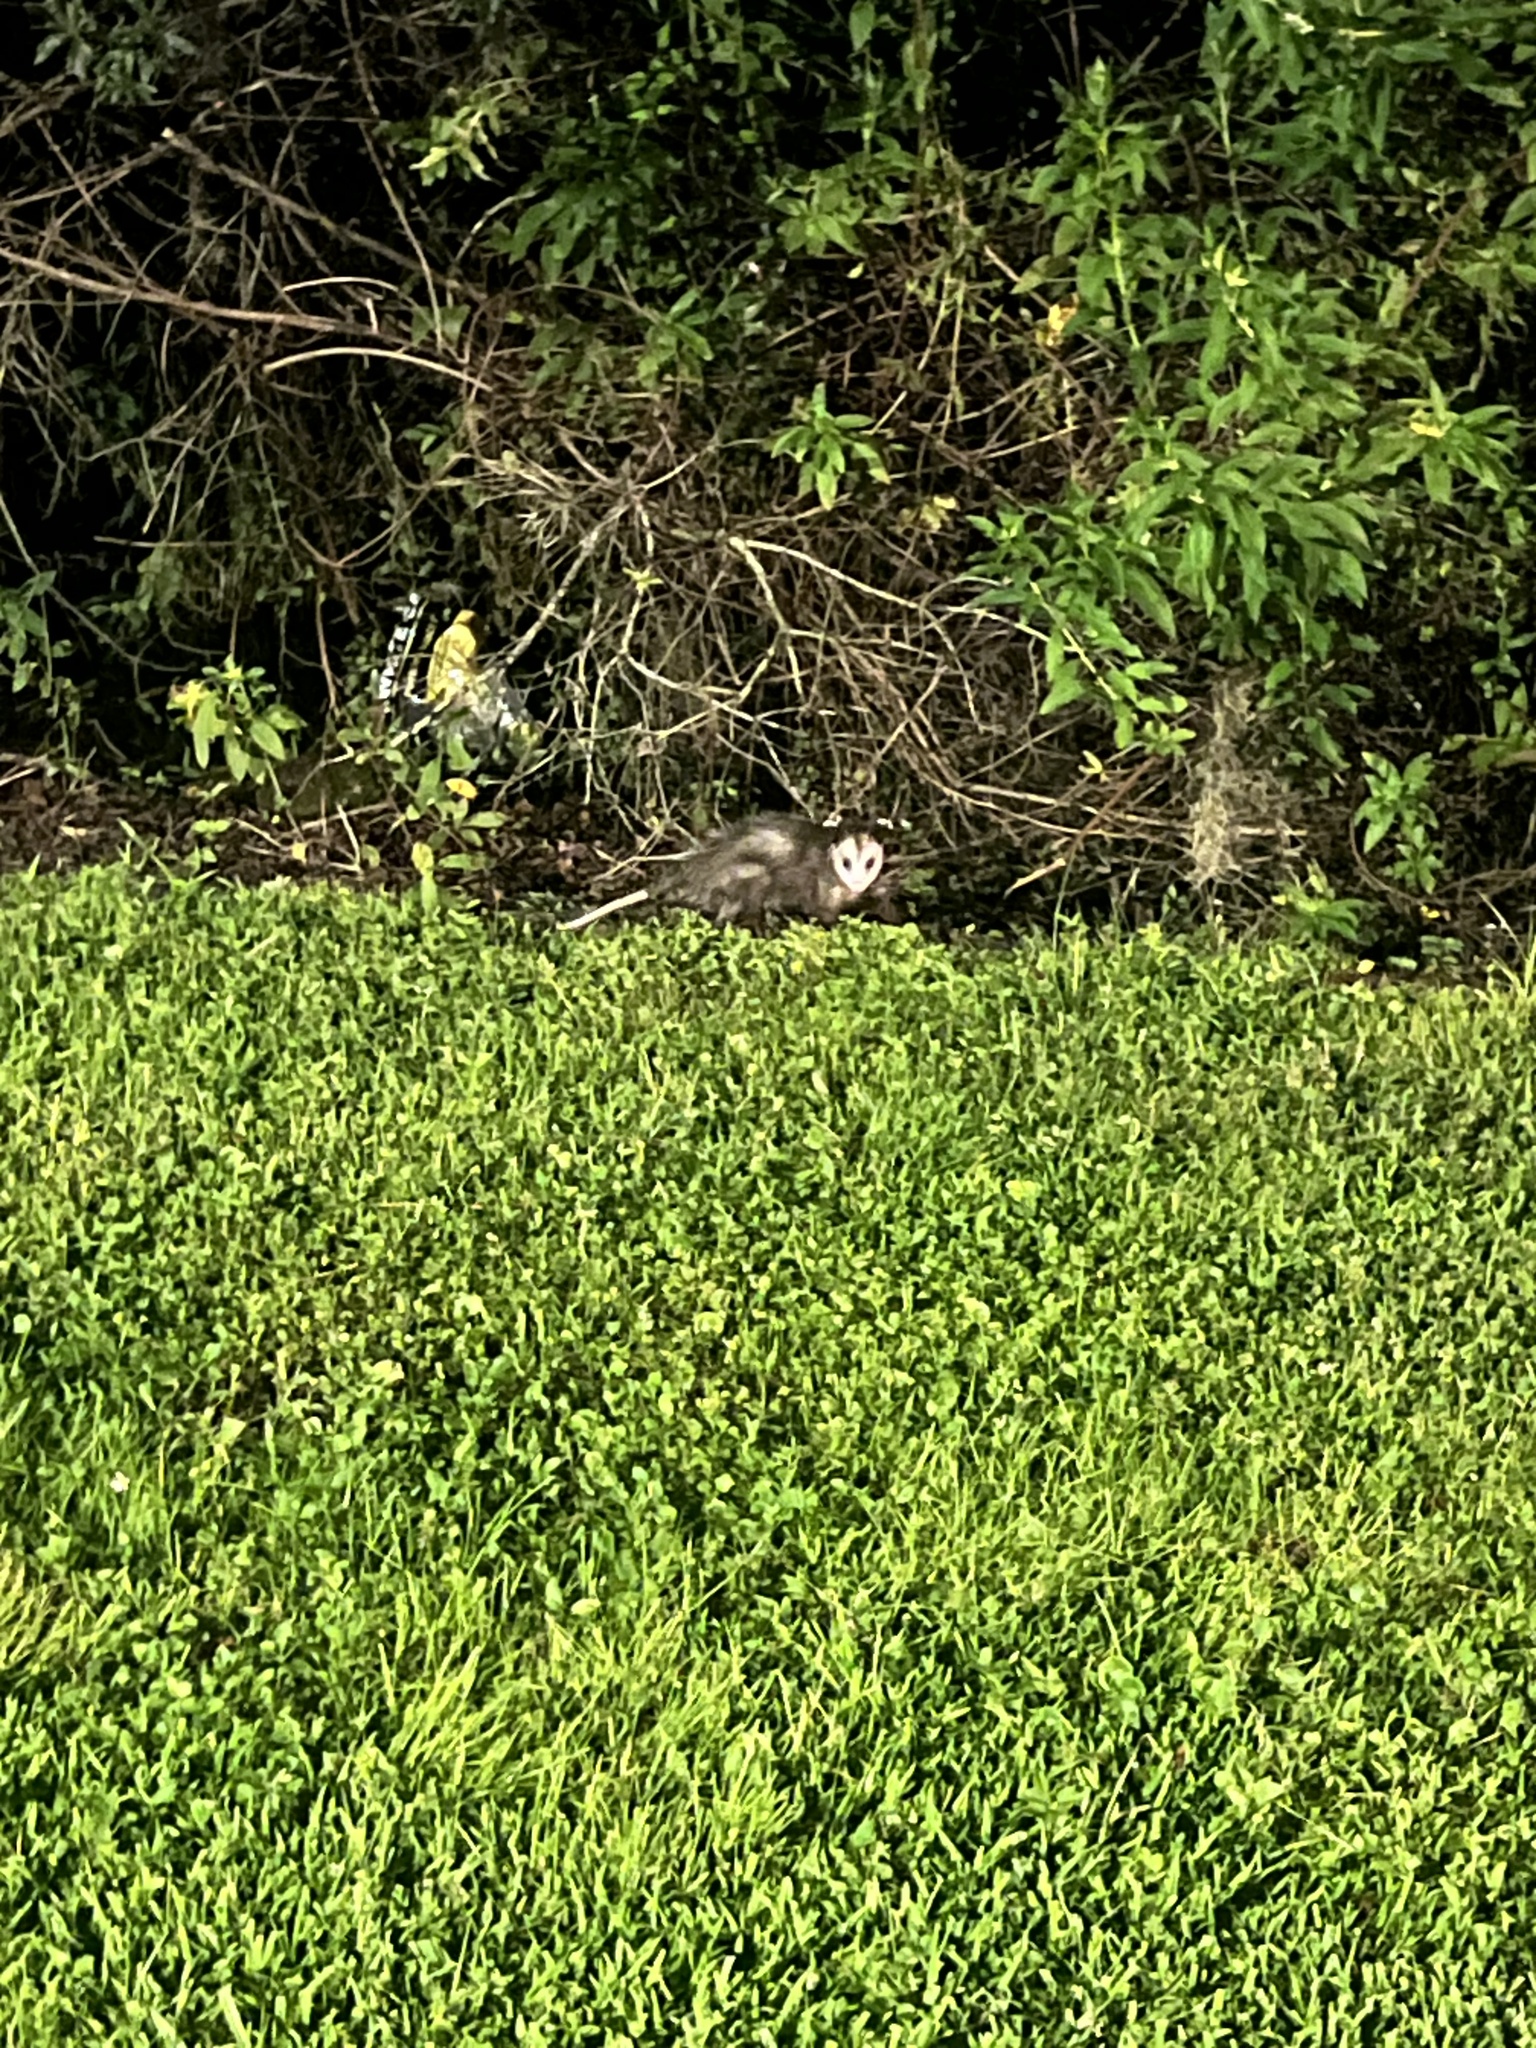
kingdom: Animalia
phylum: Chordata
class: Mammalia
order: Didelphimorphia
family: Didelphidae
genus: Didelphis
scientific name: Didelphis virginiana
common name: Virginia opossum
